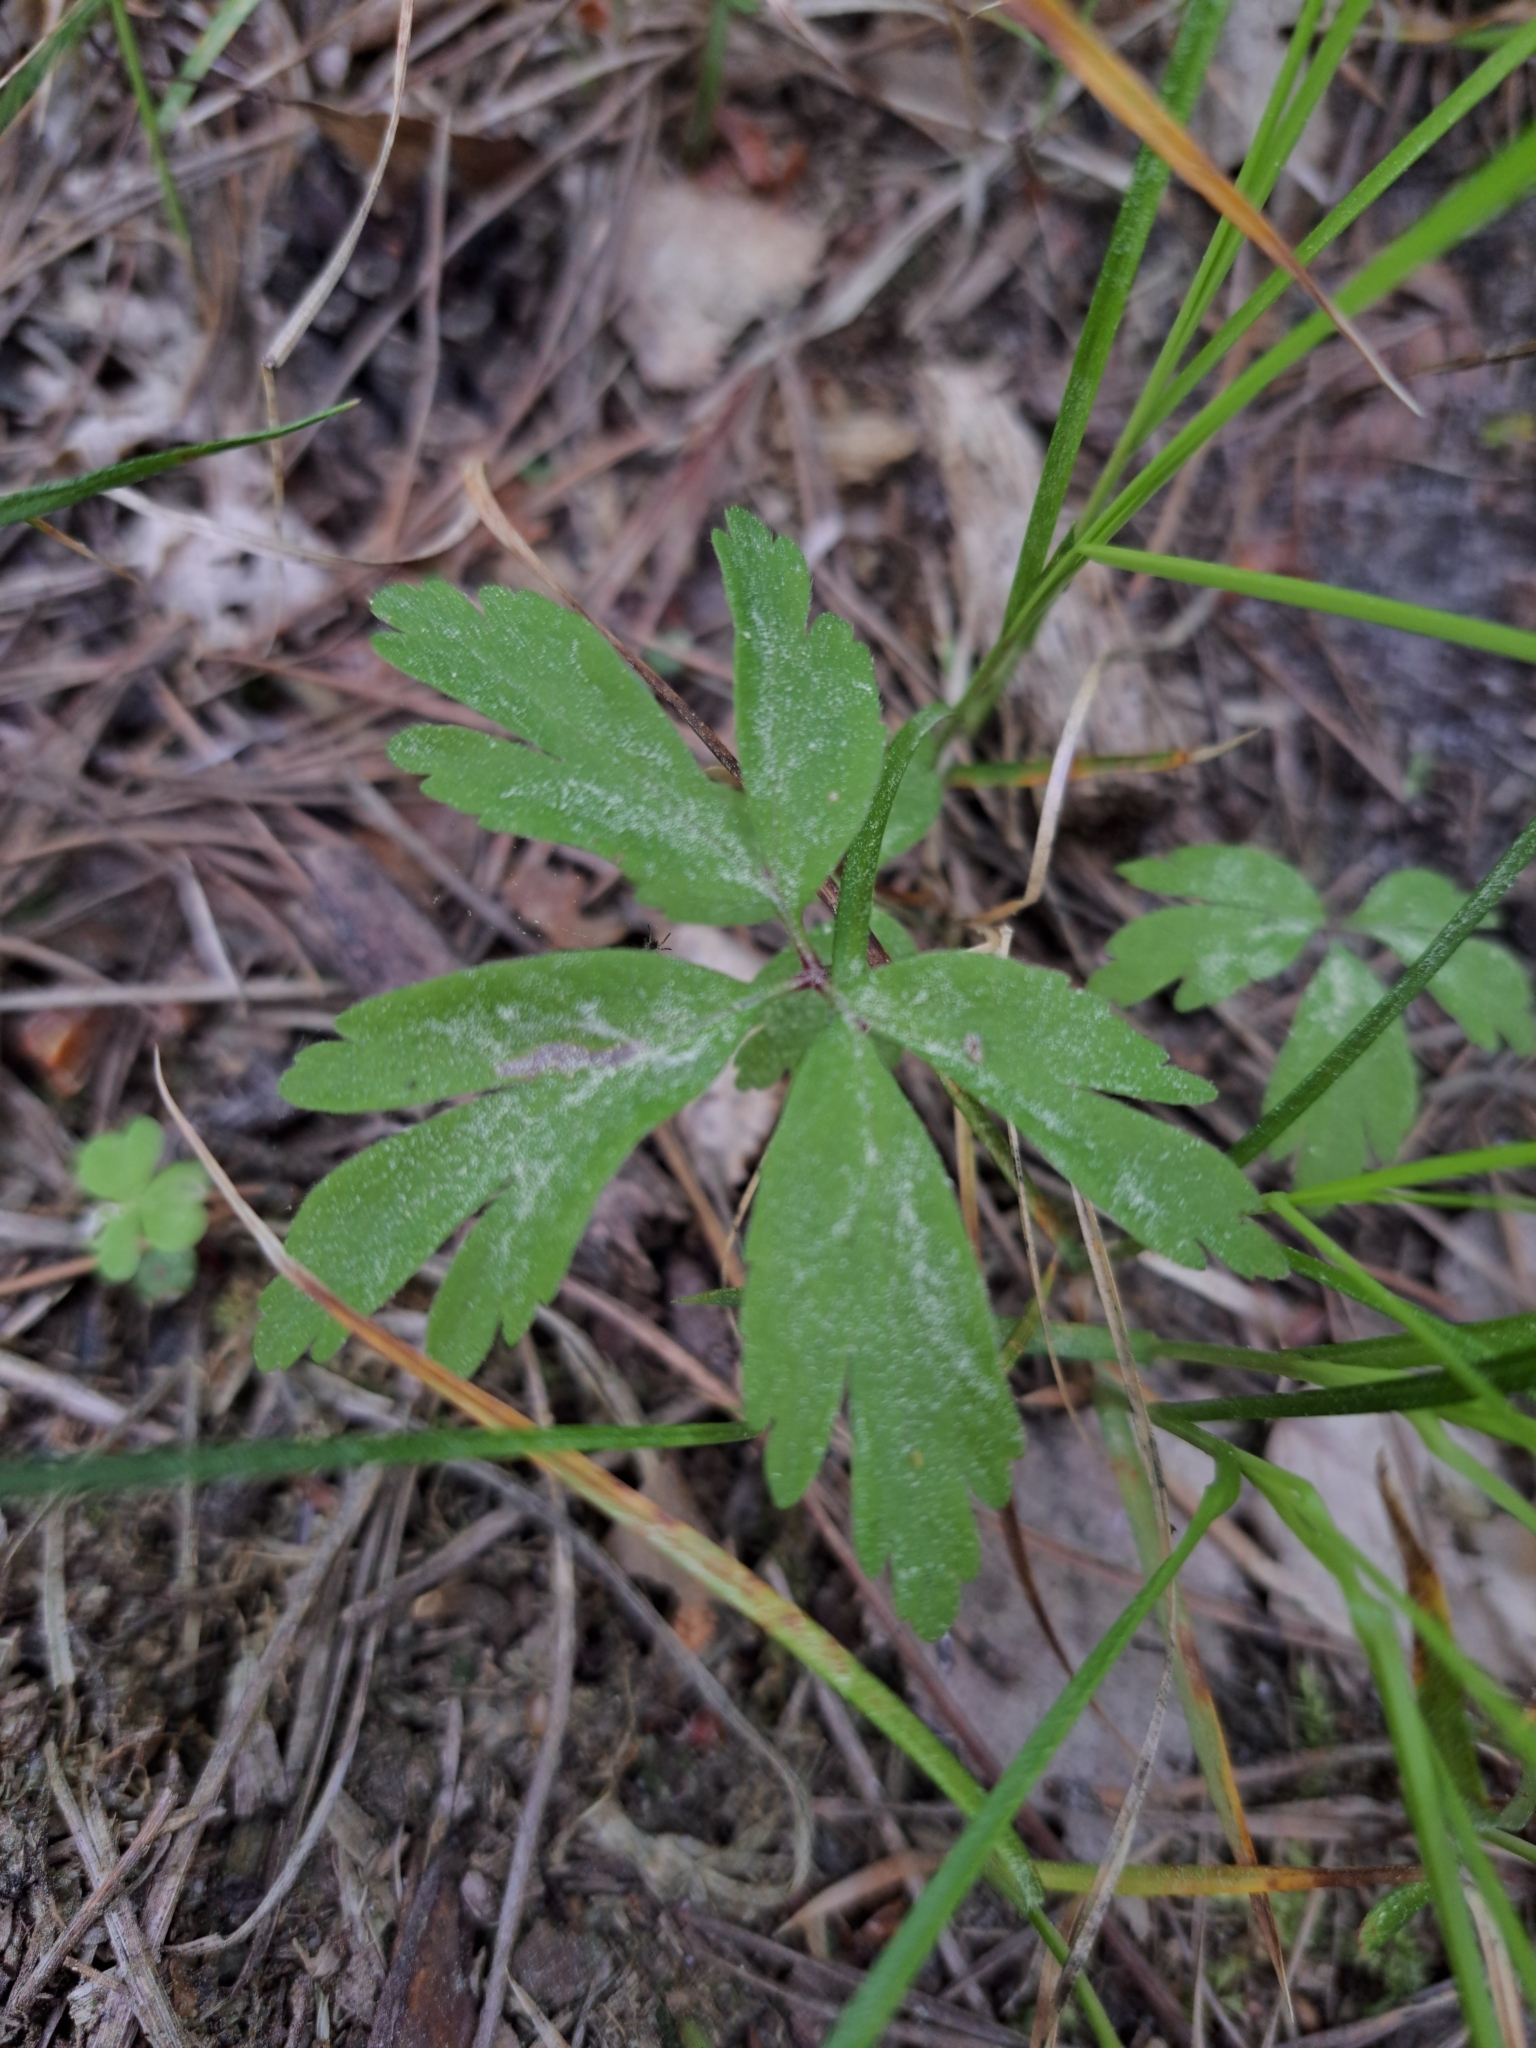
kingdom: Plantae
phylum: Tracheophyta
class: Magnoliopsida
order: Ranunculales
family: Ranunculaceae
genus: Anemone
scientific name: Anemone nemorosa
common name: Wood anemone
